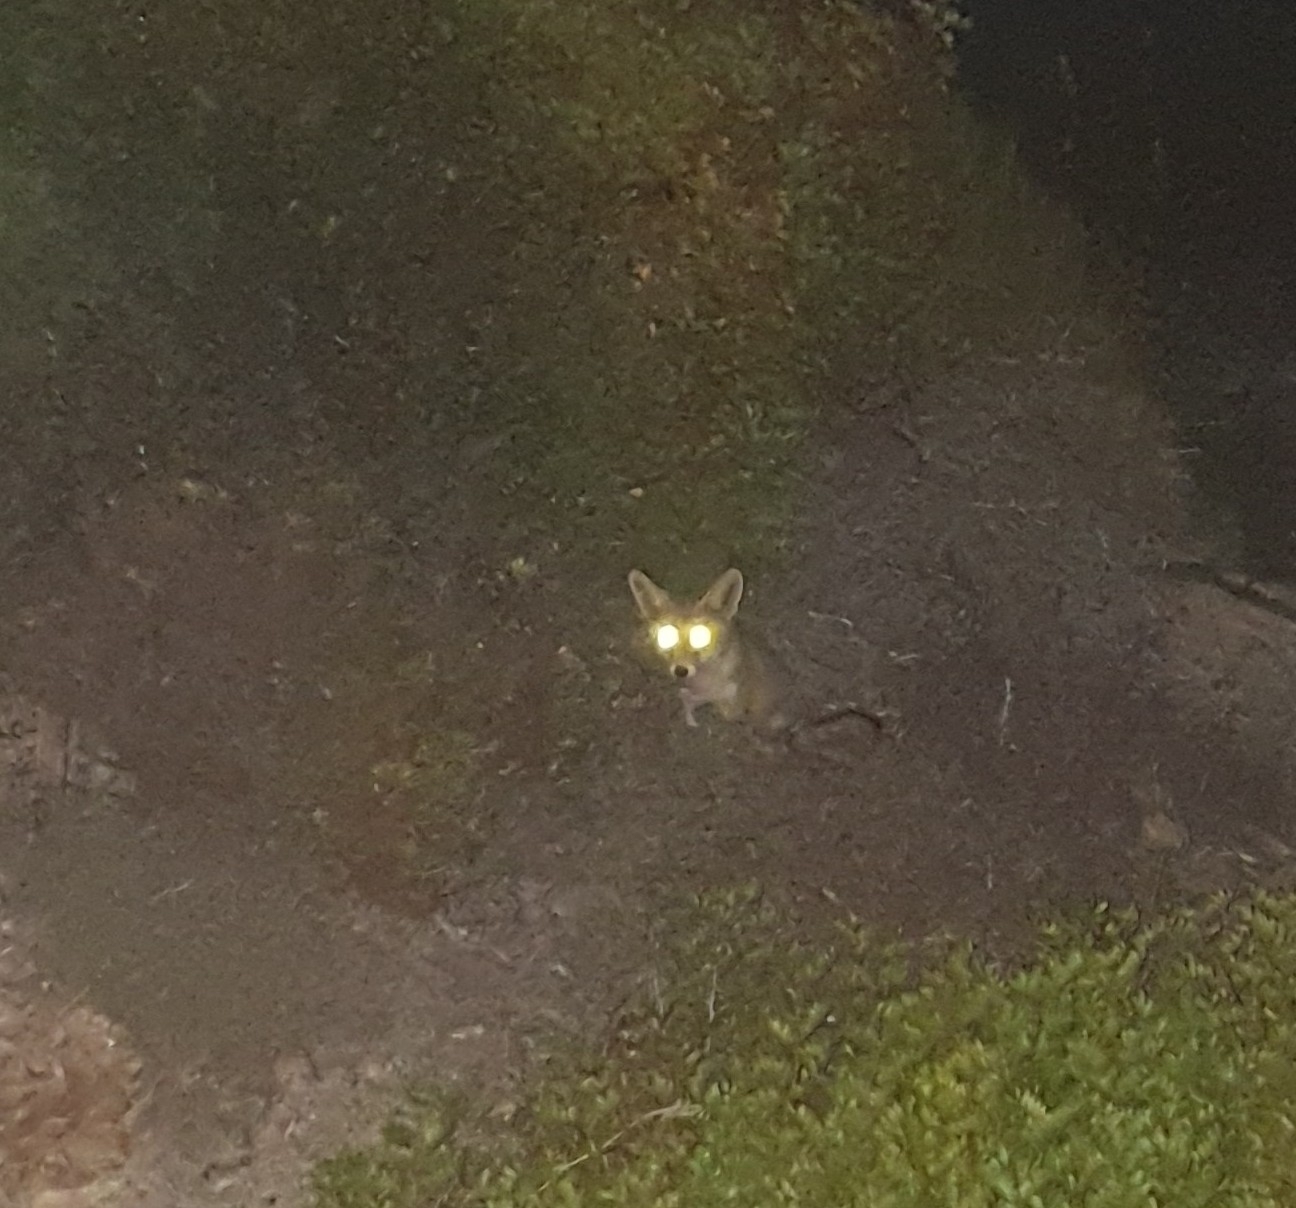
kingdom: Animalia
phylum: Chordata
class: Mammalia
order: Carnivora
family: Canidae
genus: Vulpes
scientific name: Vulpes vulpes
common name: Red fox
